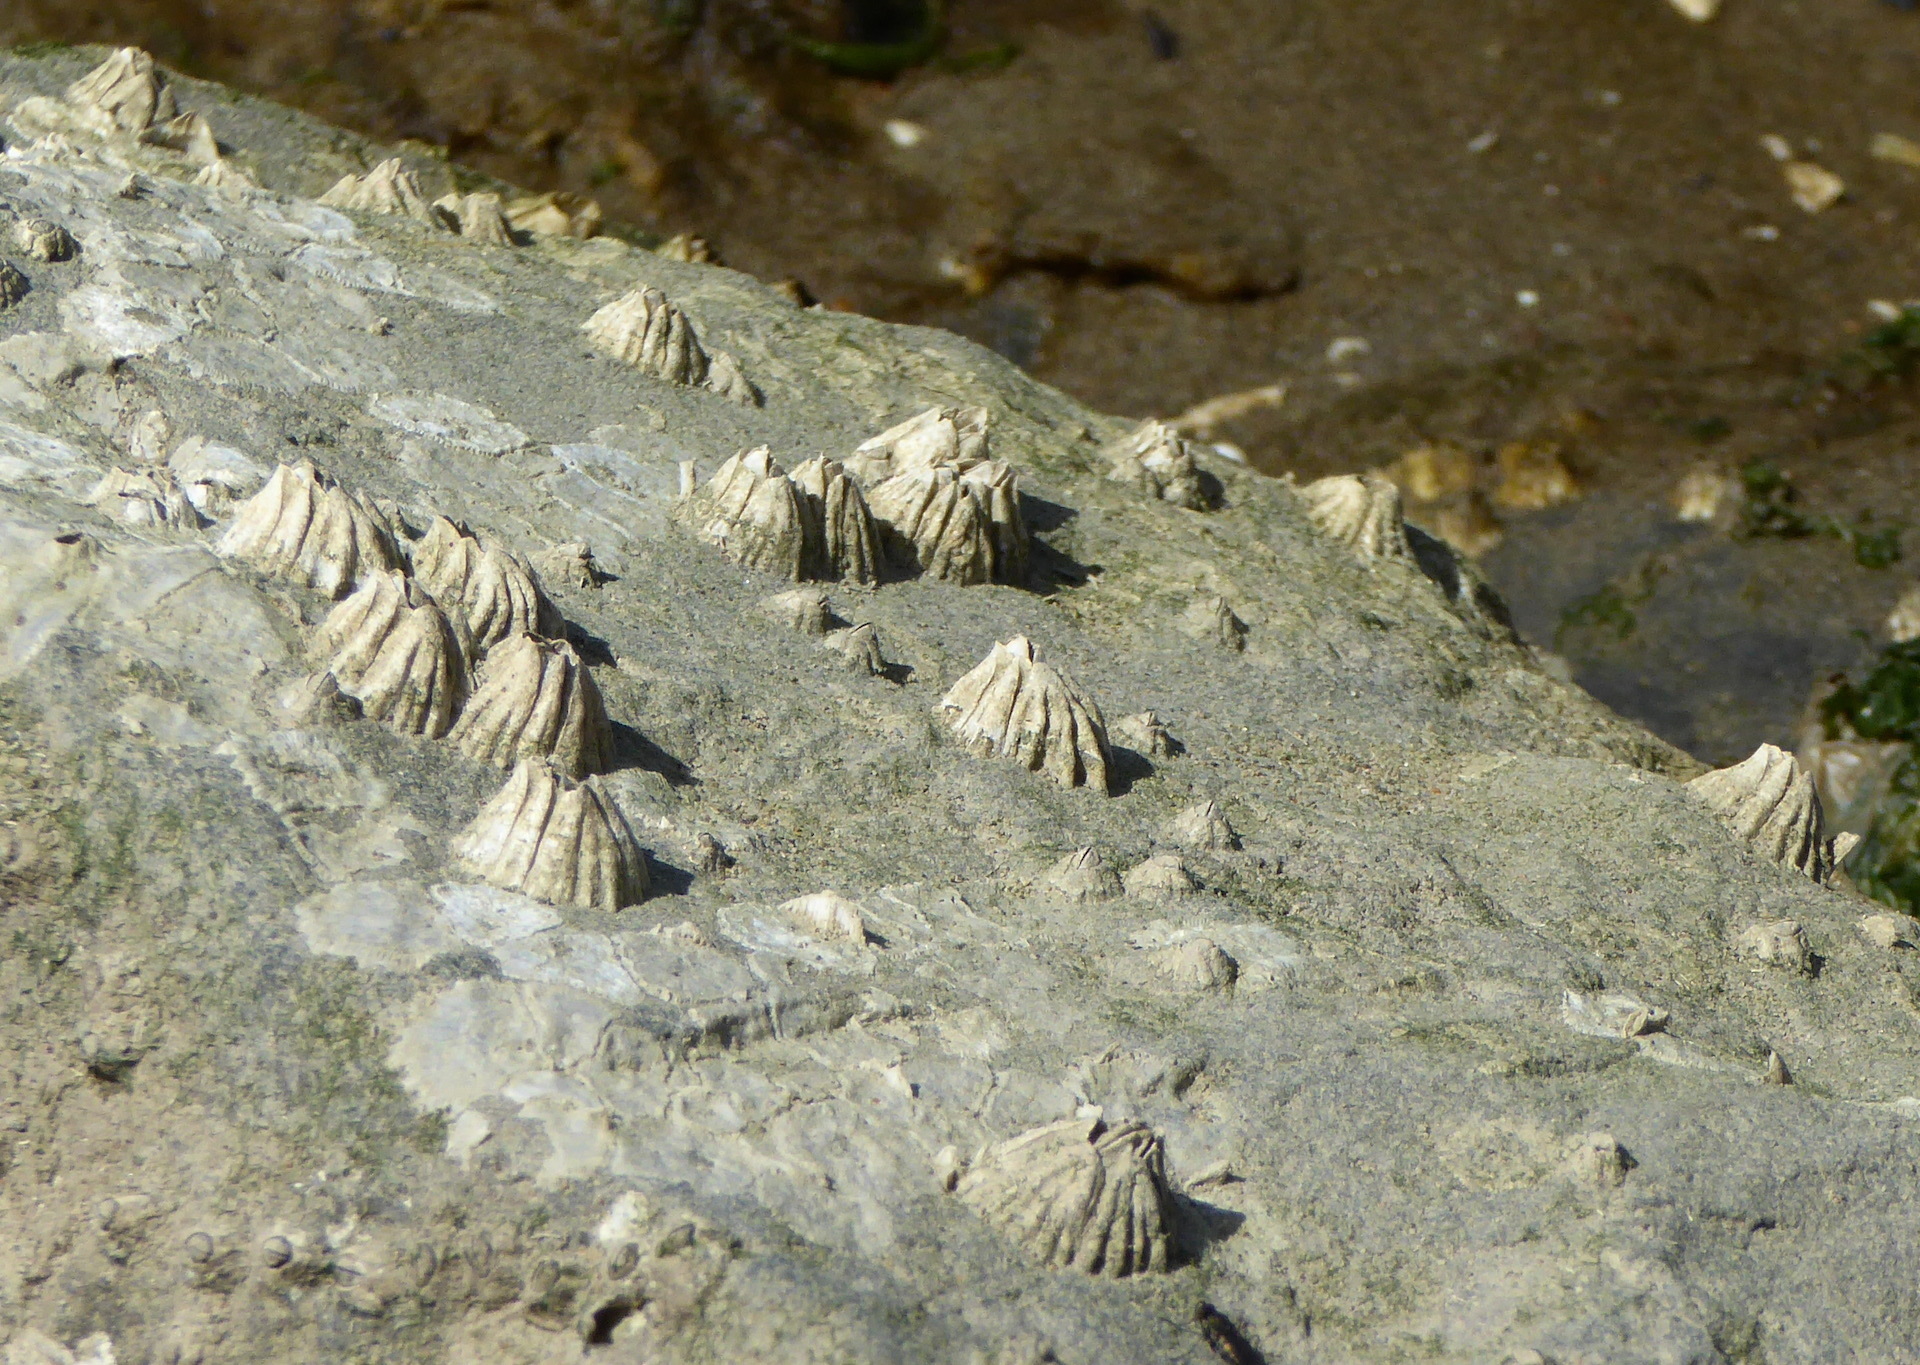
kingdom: Animalia
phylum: Arthropoda
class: Maxillopoda
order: Sessilia
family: Balanidae
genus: Balanus
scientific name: Balanus glandula
